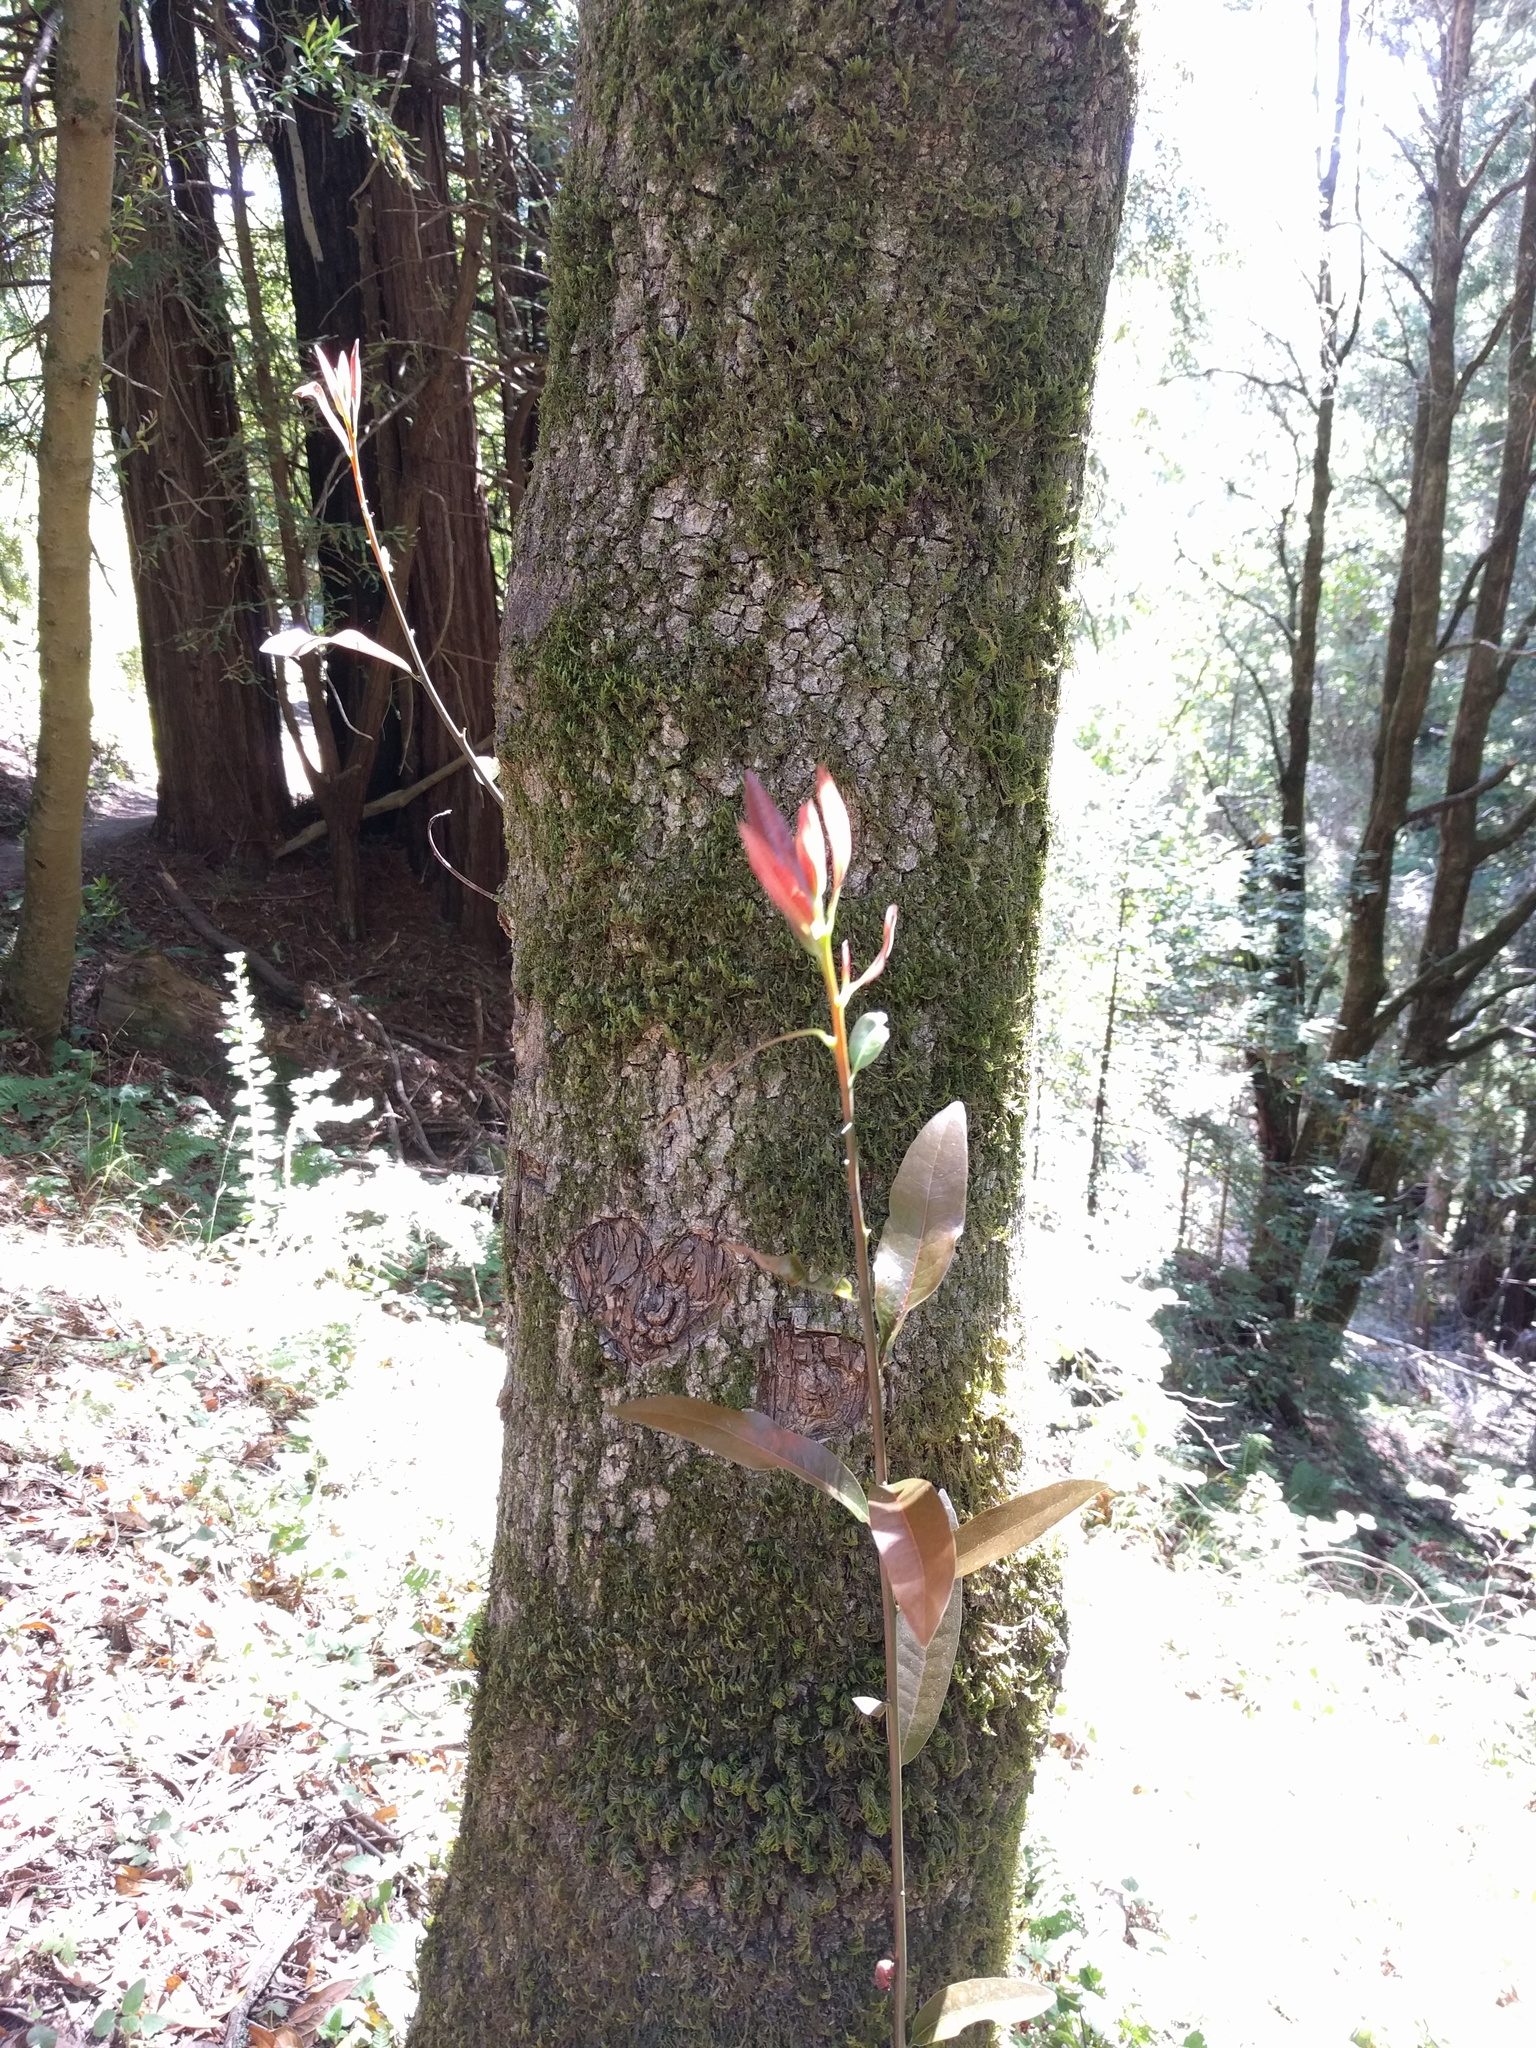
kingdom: Plantae
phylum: Tracheophyta
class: Magnoliopsida
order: Laurales
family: Lauraceae
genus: Umbellularia
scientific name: Umbellularia californica
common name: California bay
